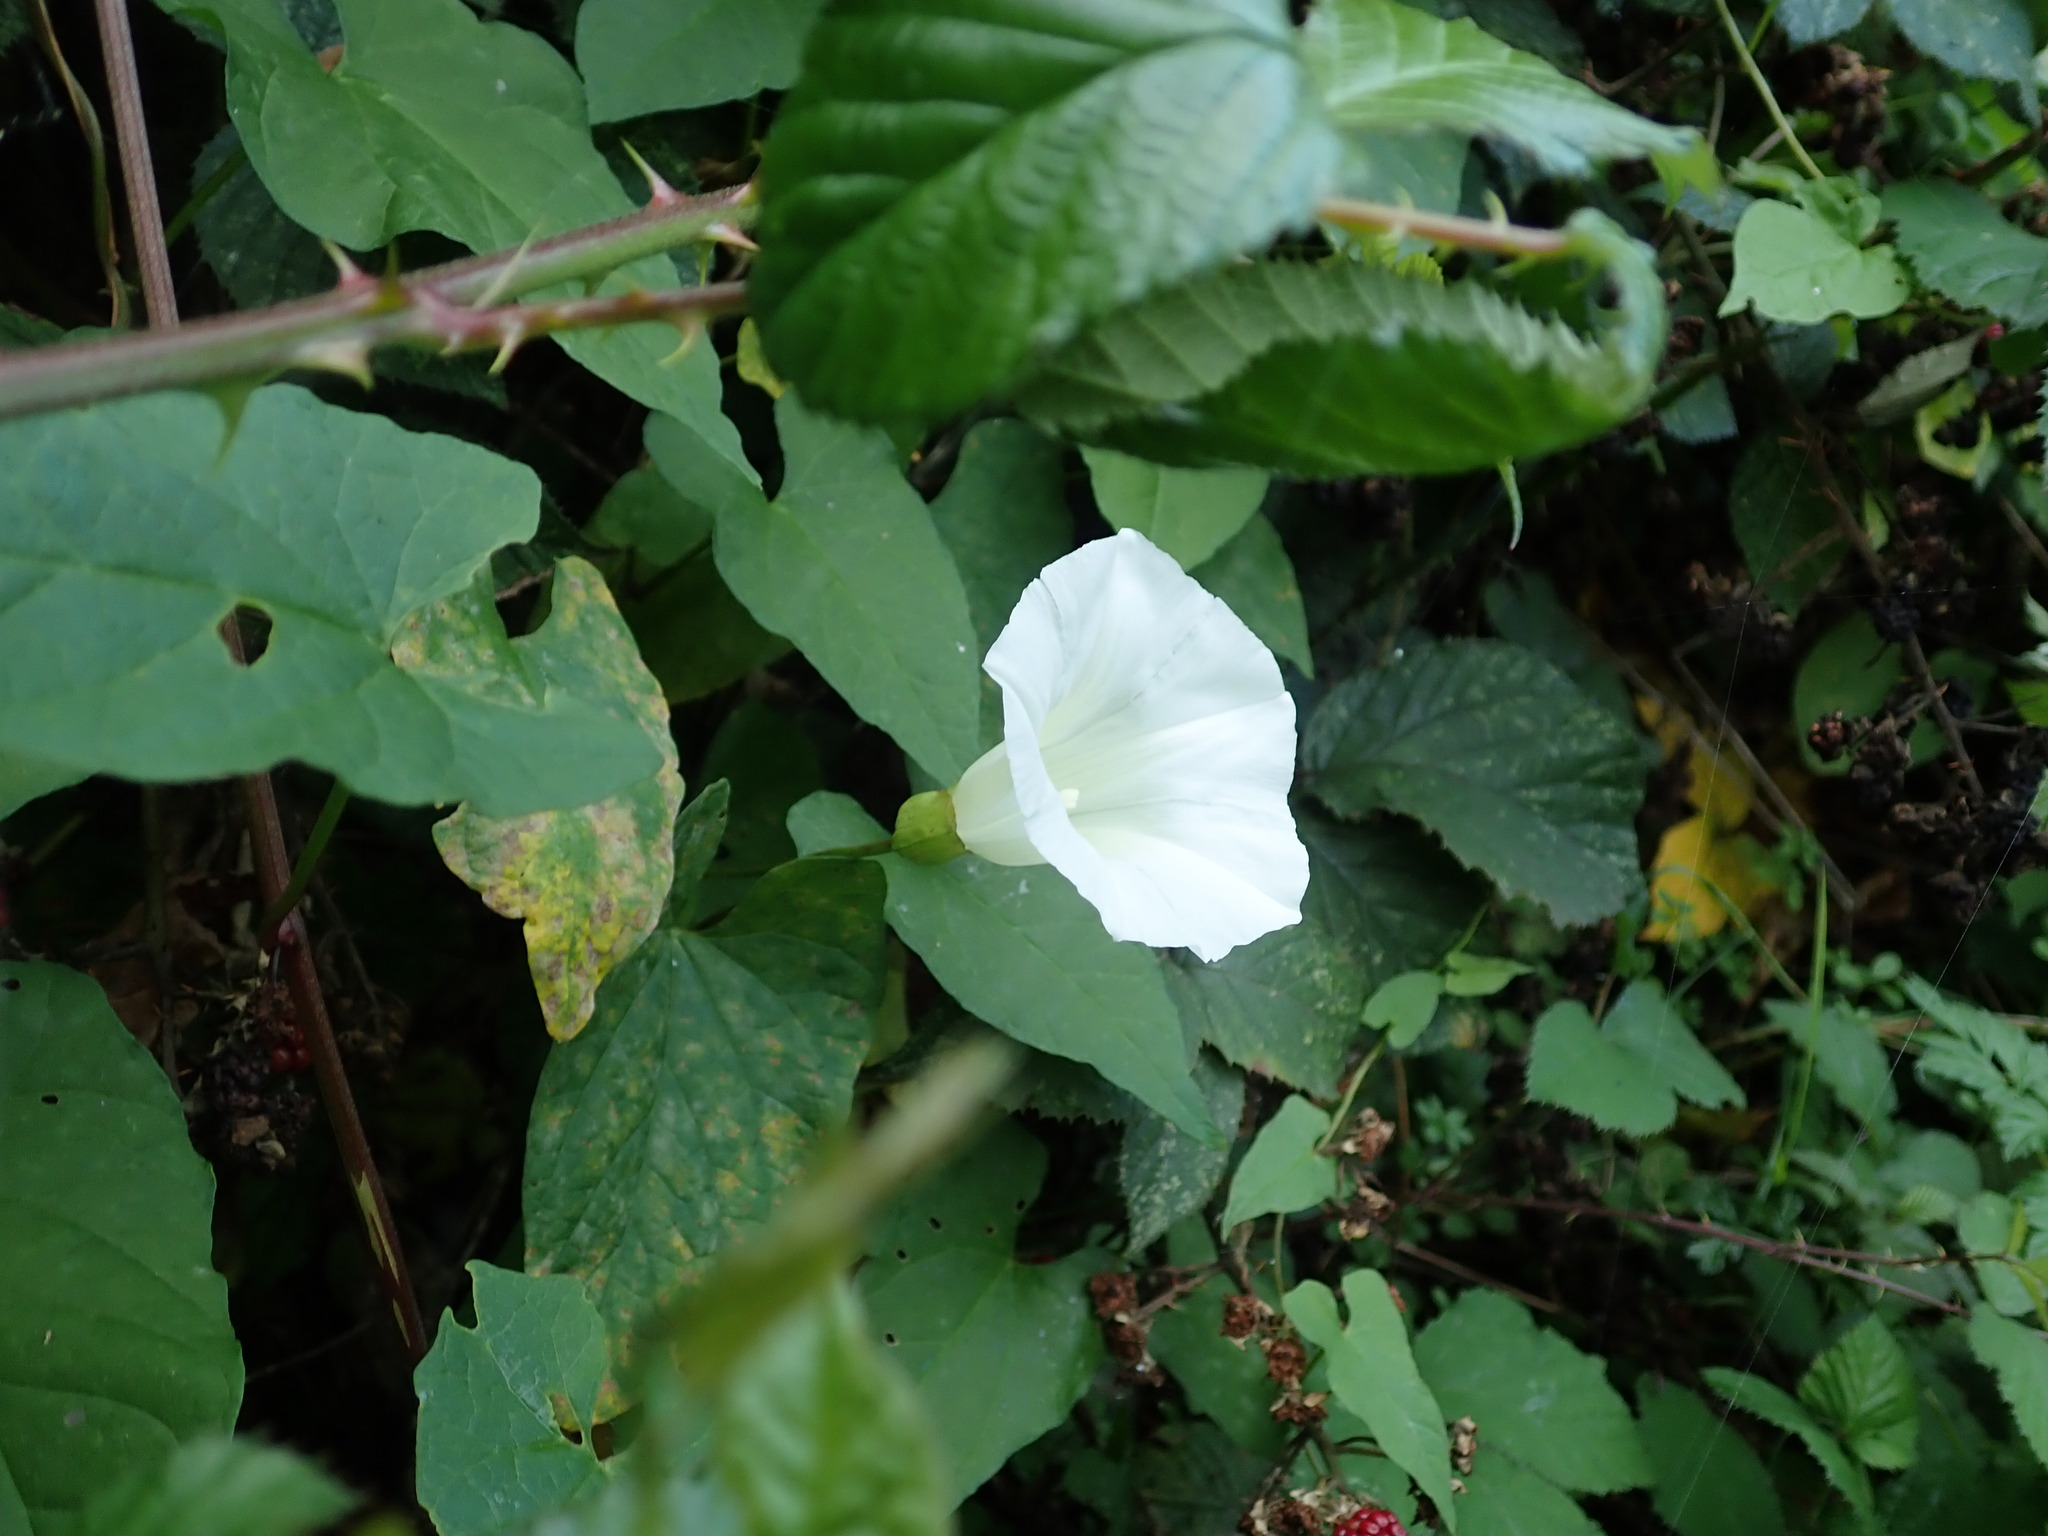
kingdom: Plantae
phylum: Tracheophyta
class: Magnoliopsida
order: Solanales
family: Convolvulaceae
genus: Calystegia
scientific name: Calystegia lucana
